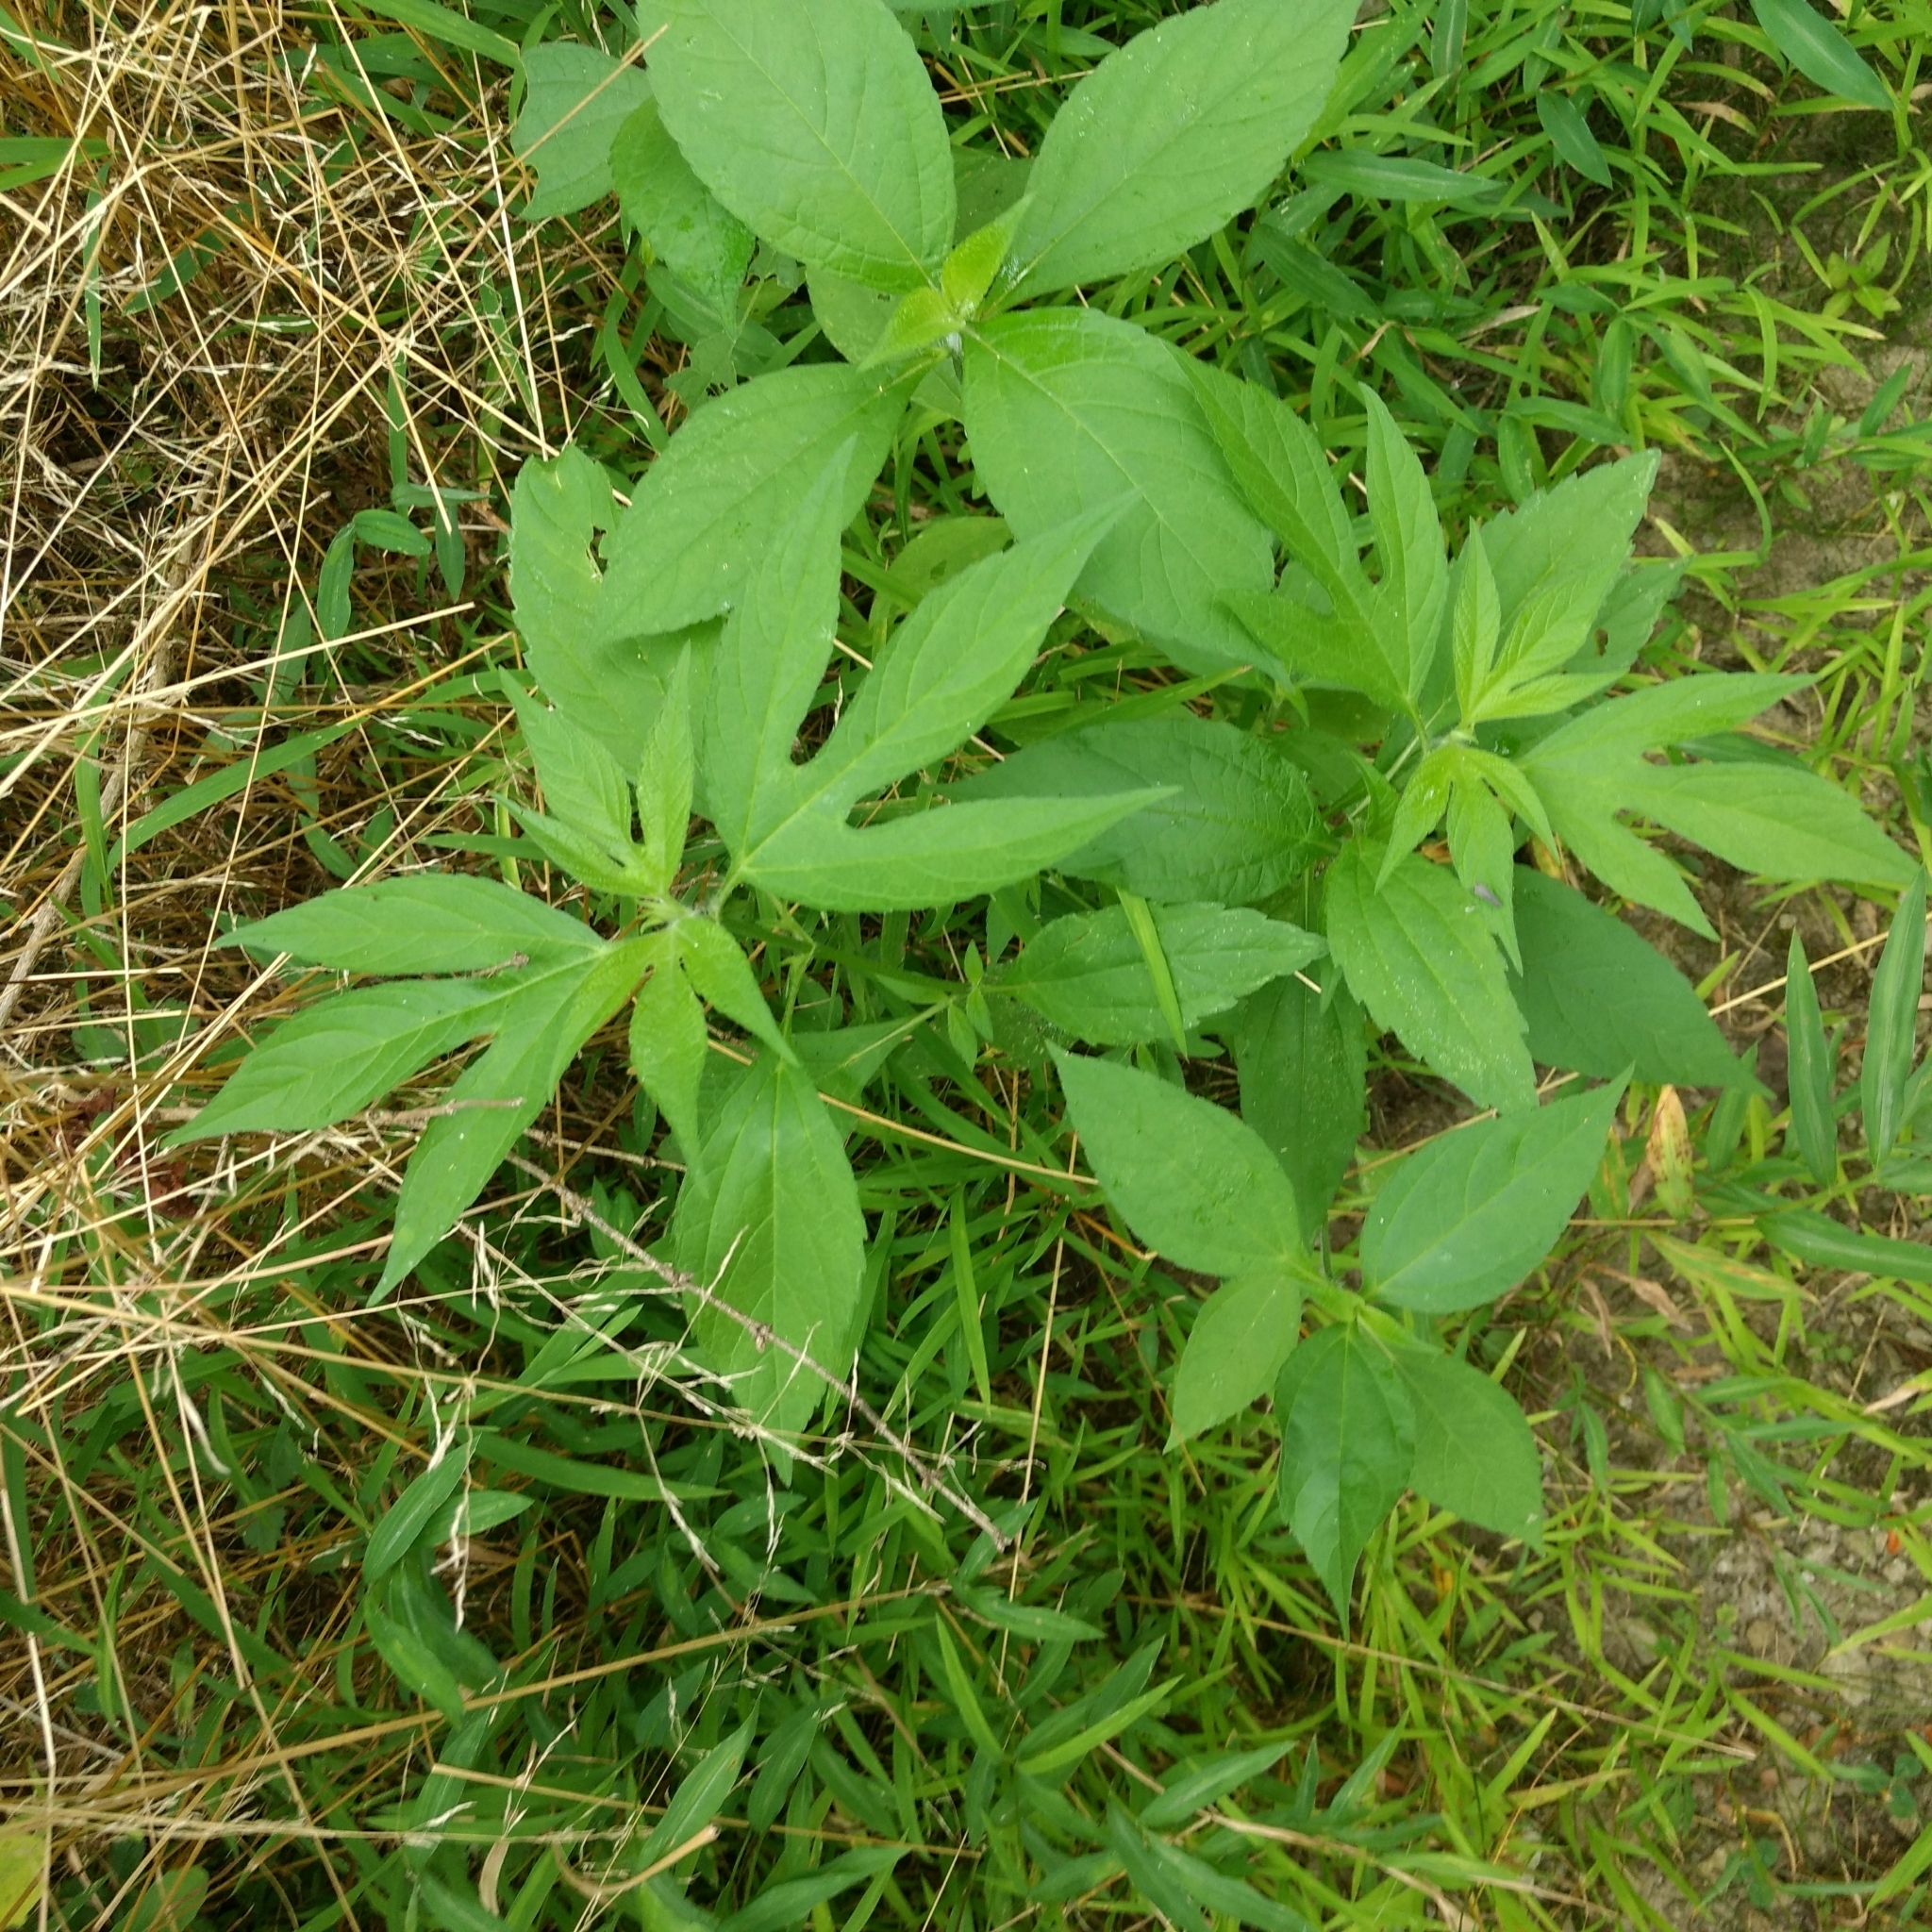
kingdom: Plantae
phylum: Tracheophyta
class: Magnoliopsida
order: Asterales
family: Asteraceae
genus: Ambrosia
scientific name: Ambrosia trifida
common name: Giant ragweed
